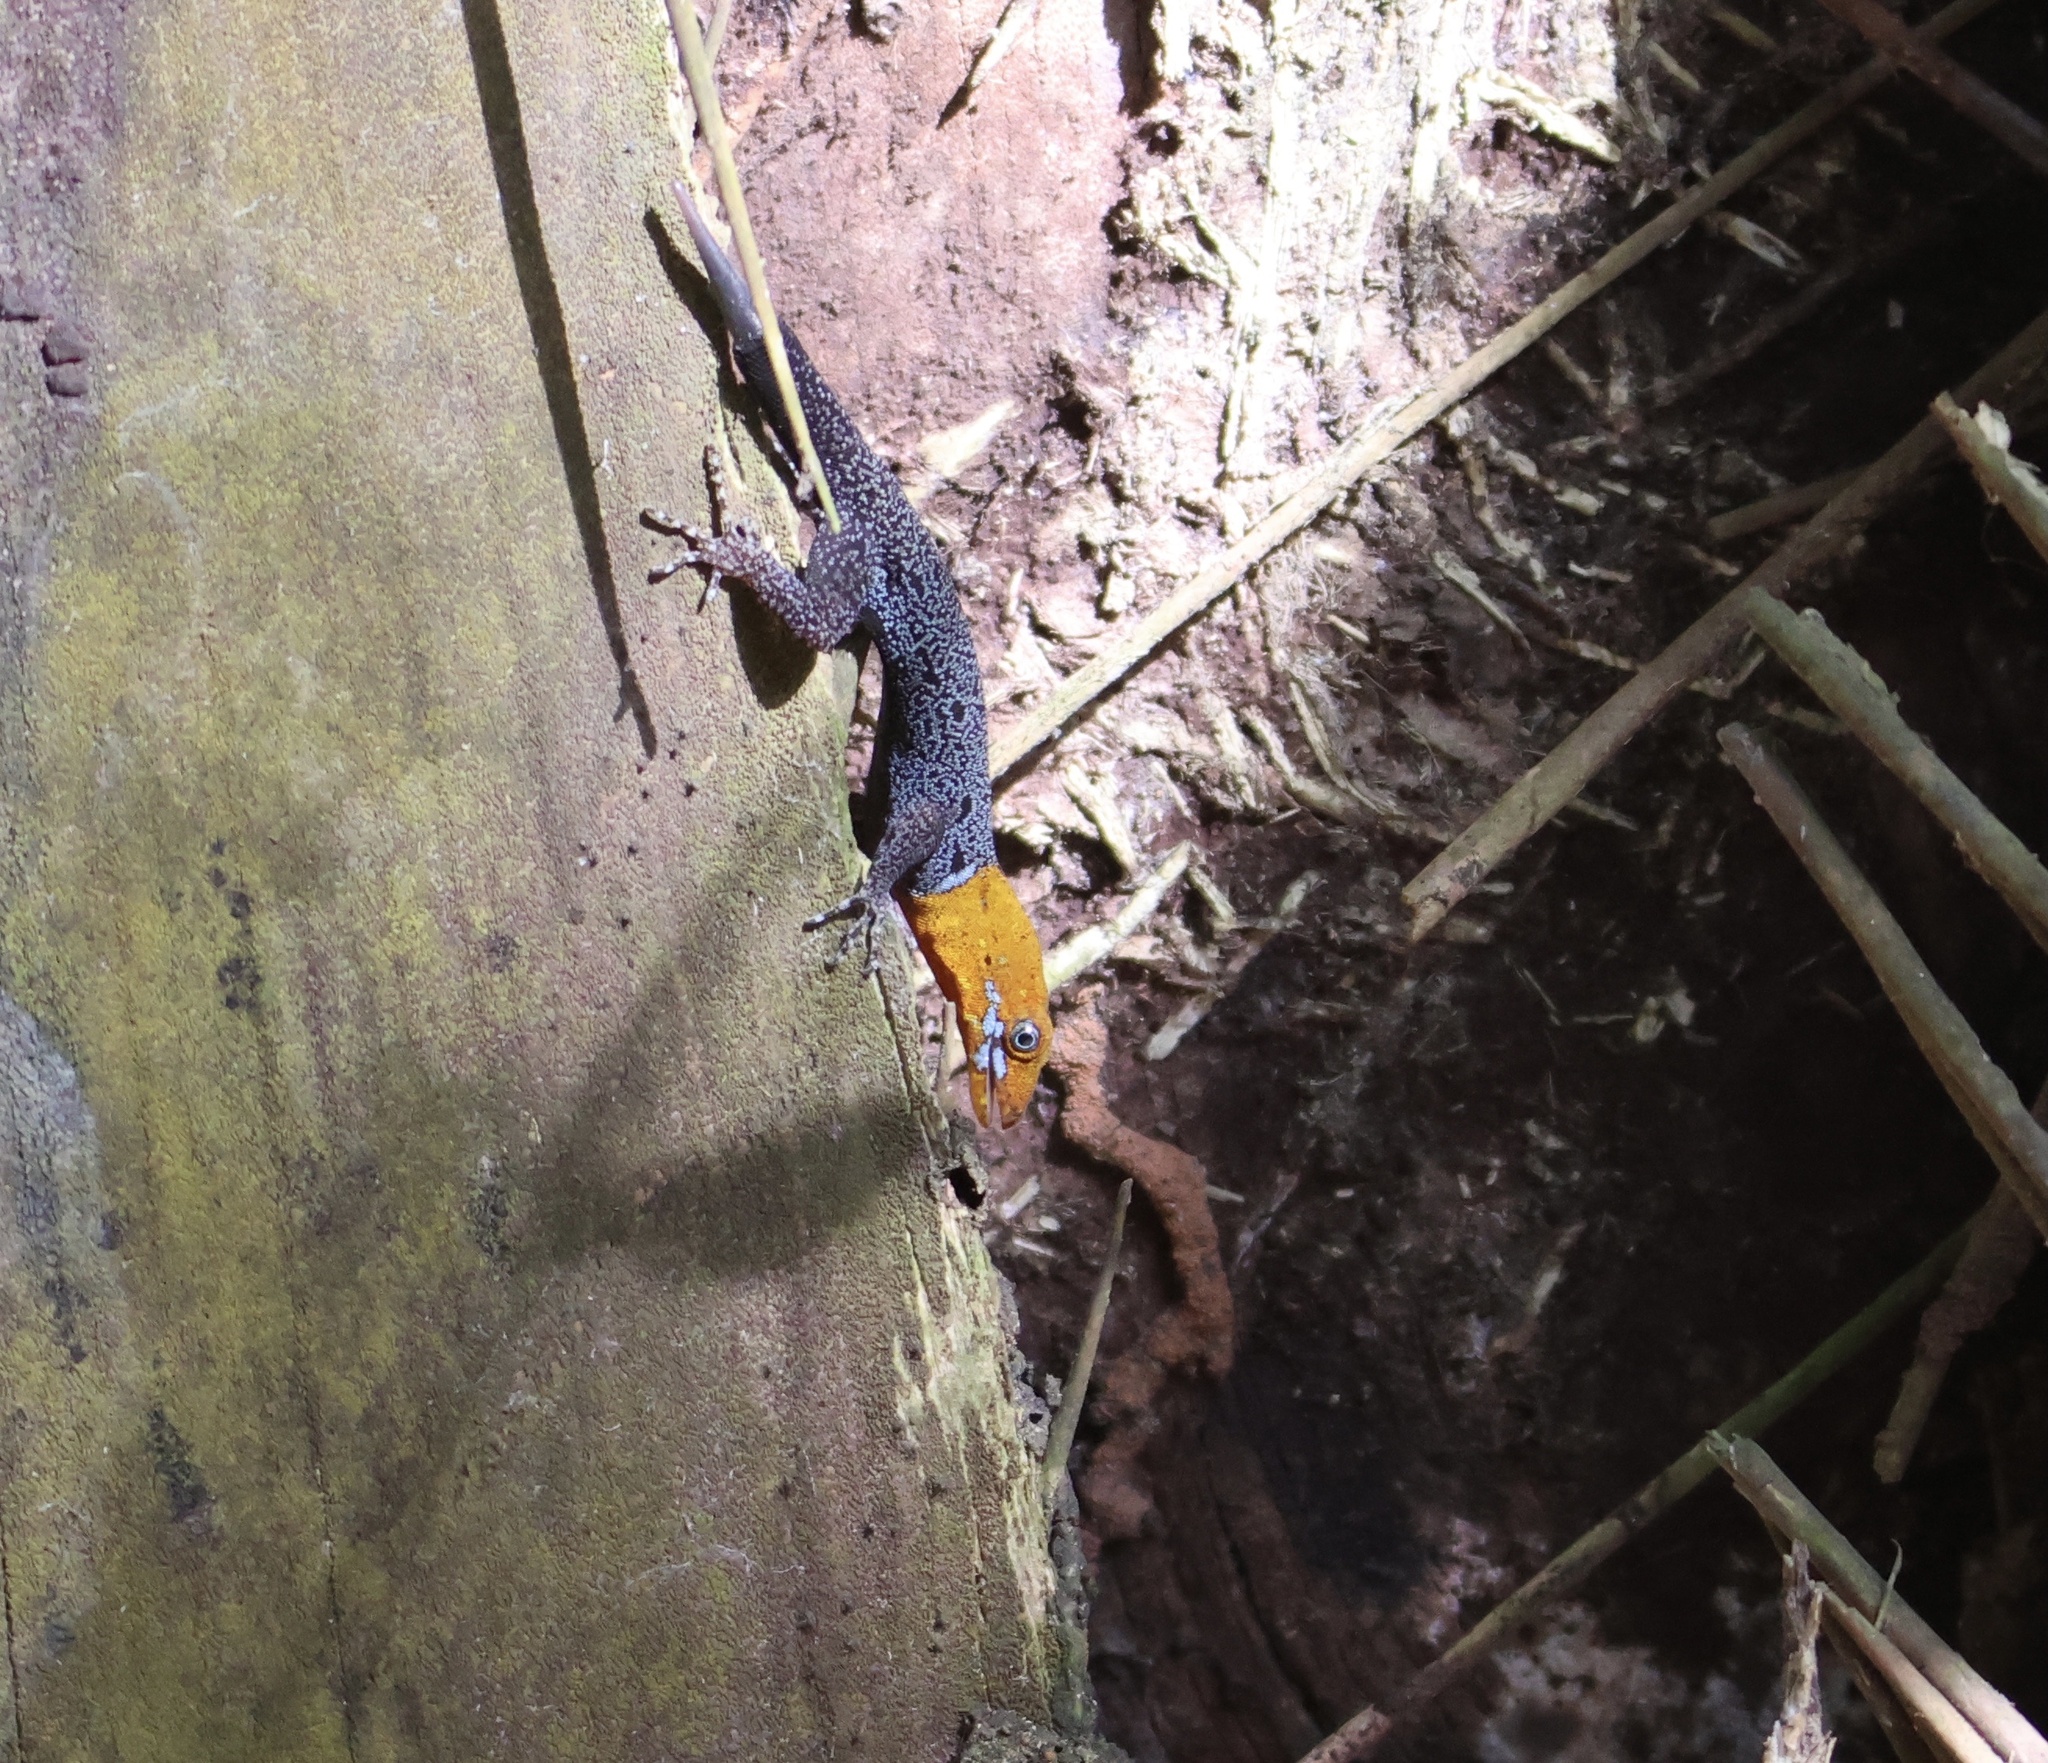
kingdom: Animalia
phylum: Chordata
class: Squamata
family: Sphaerodactylidae
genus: Gonatodes
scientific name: Gonatodes albogularis
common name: Yellow-headed gecko
